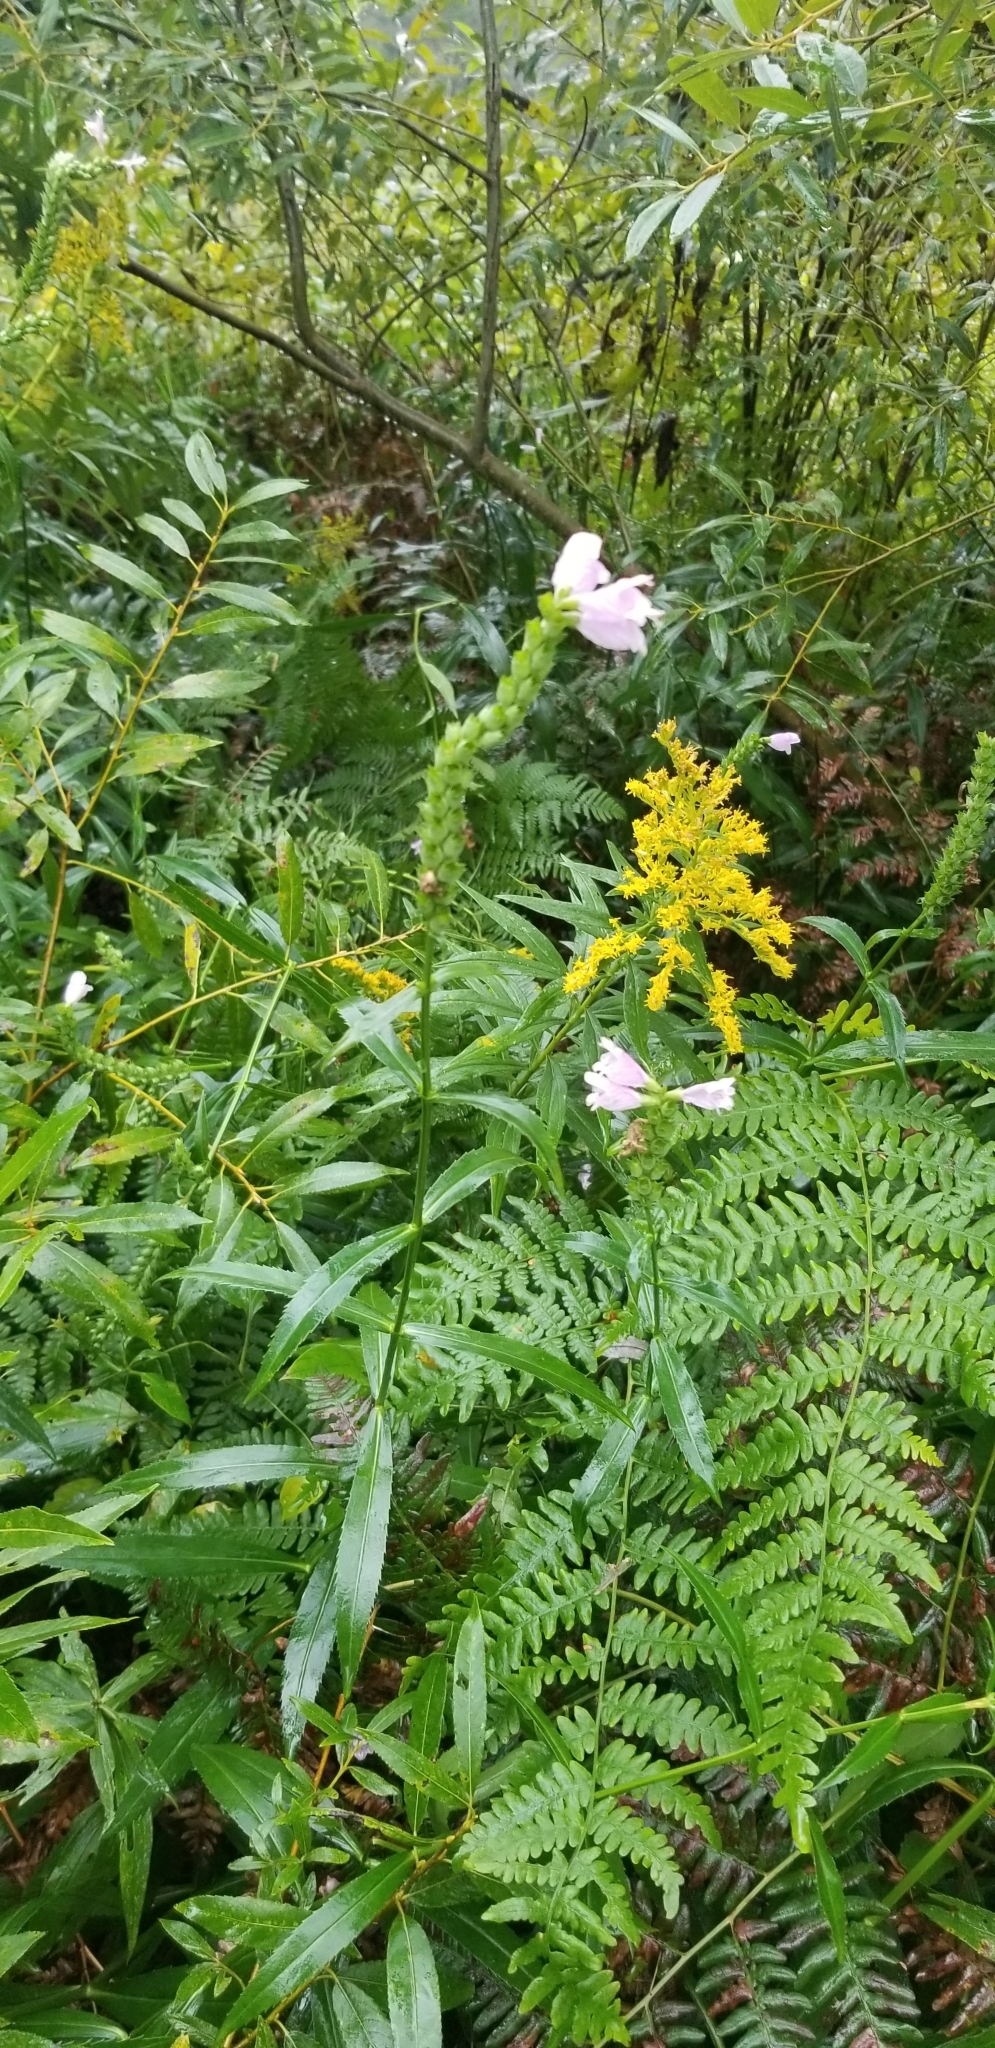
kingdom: Plantae
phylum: Tracheophyta
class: Magnoliopsida
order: Lamiales
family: Lamiaceae
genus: Physostegia
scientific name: Physostegia virginiana
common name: Obedient-plant
